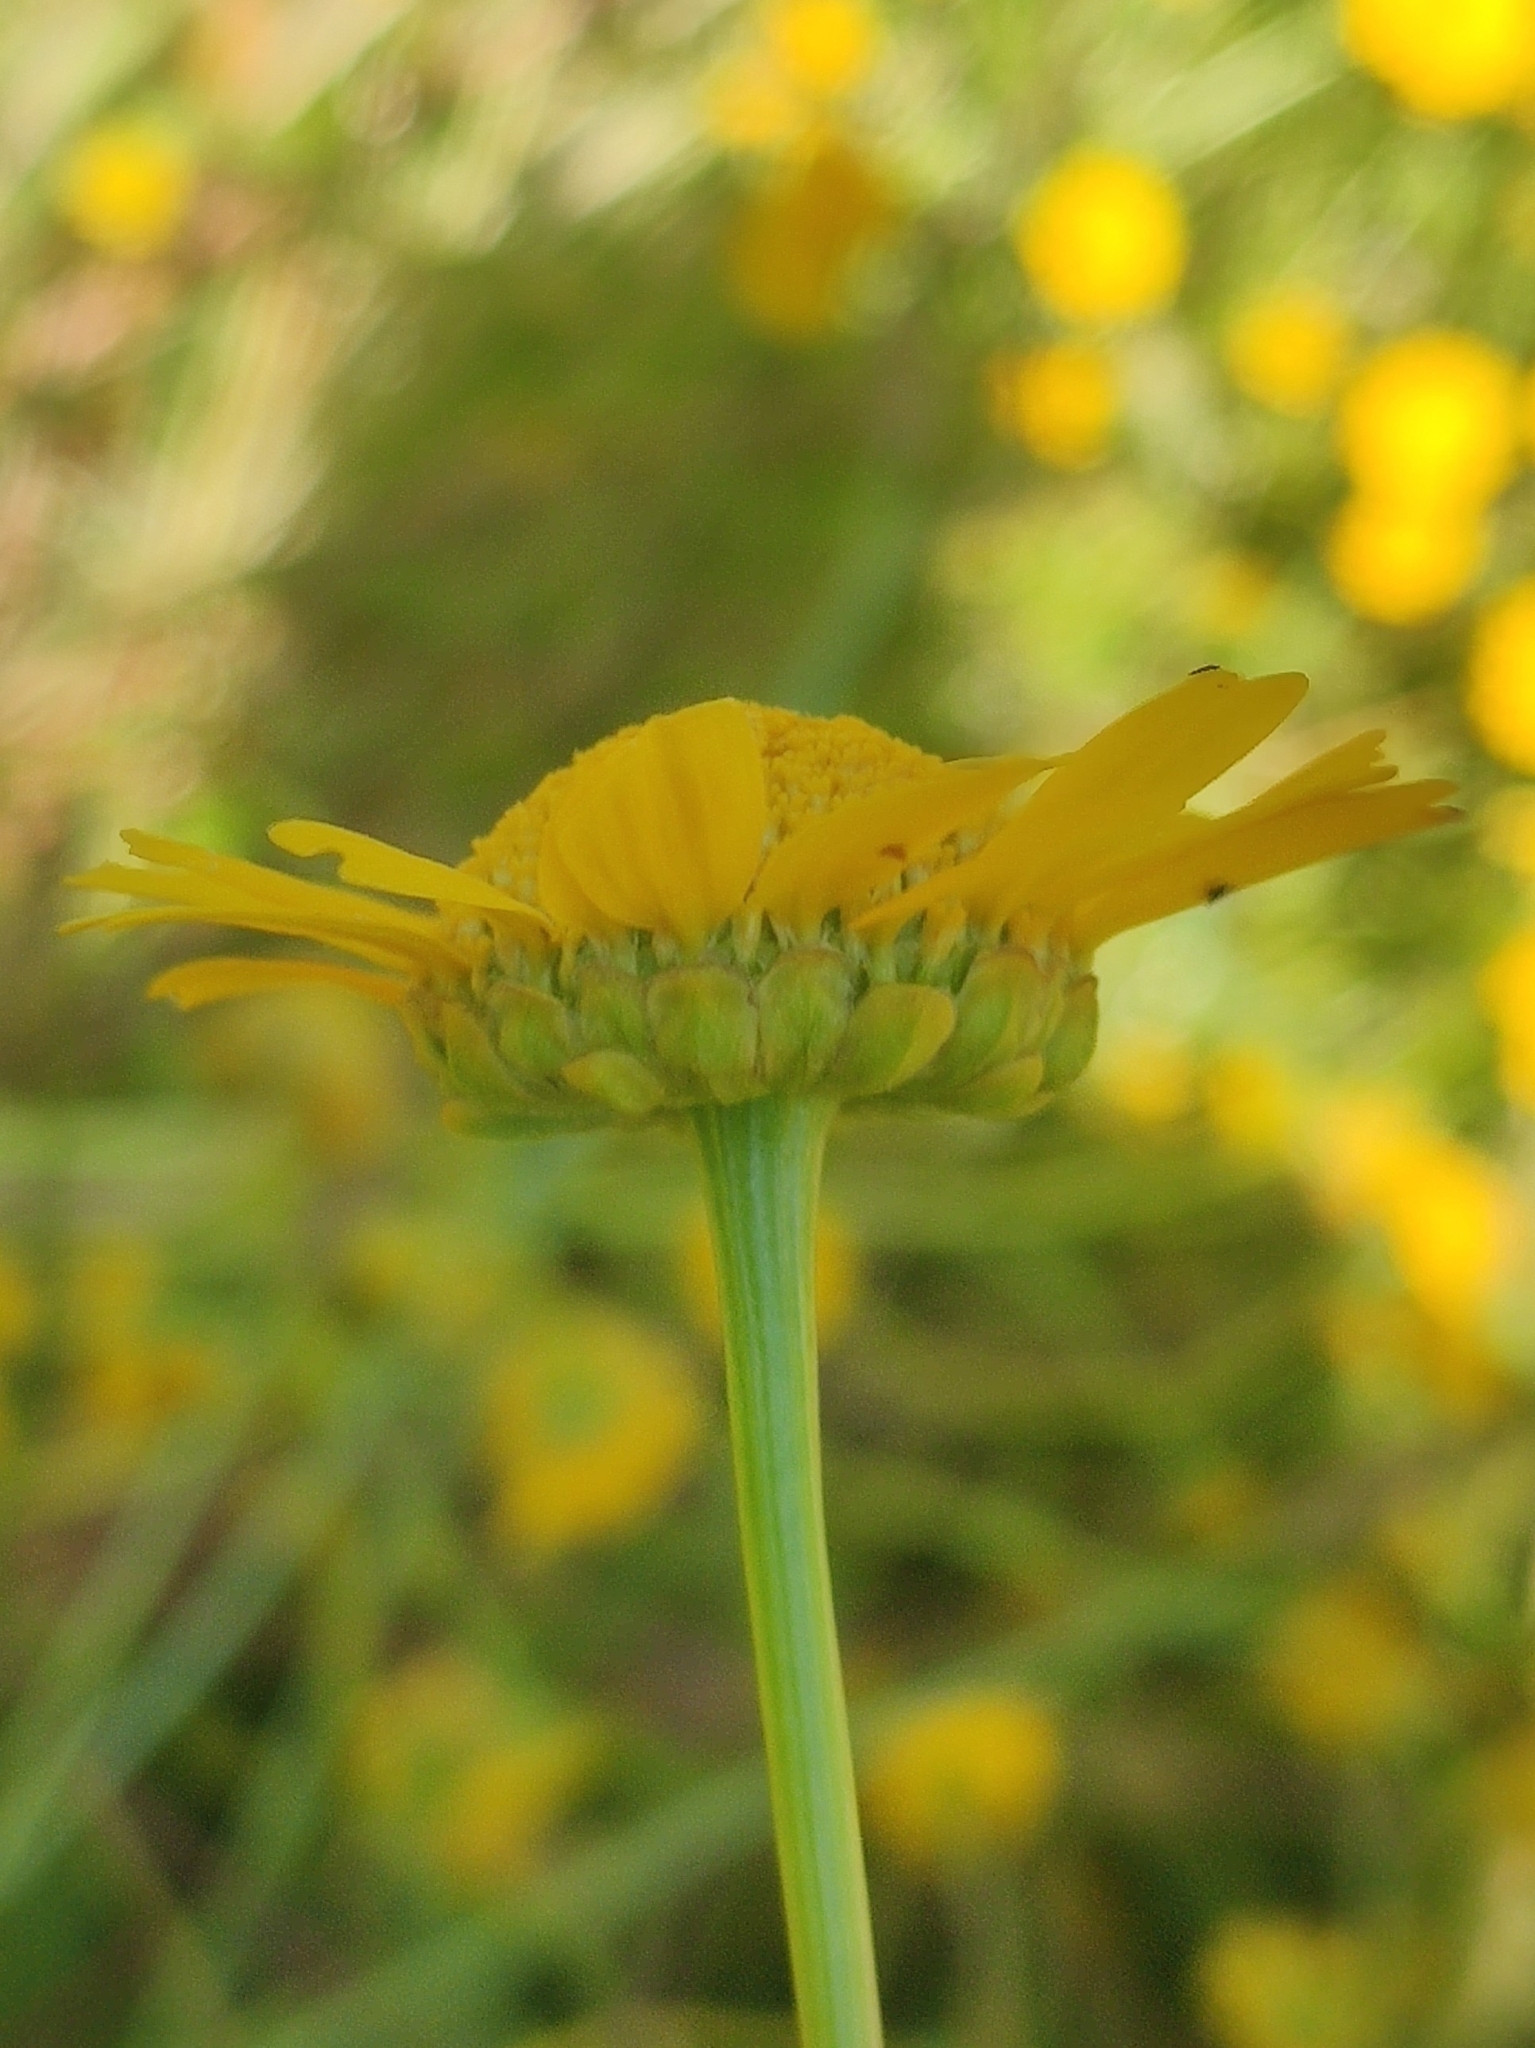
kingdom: Plantae
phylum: Tracheophyta
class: Magnoliopsida
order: Asterales
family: Asteraceae
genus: Coleostephus
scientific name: Coleostephus myconis
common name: Mediterranean marigold
